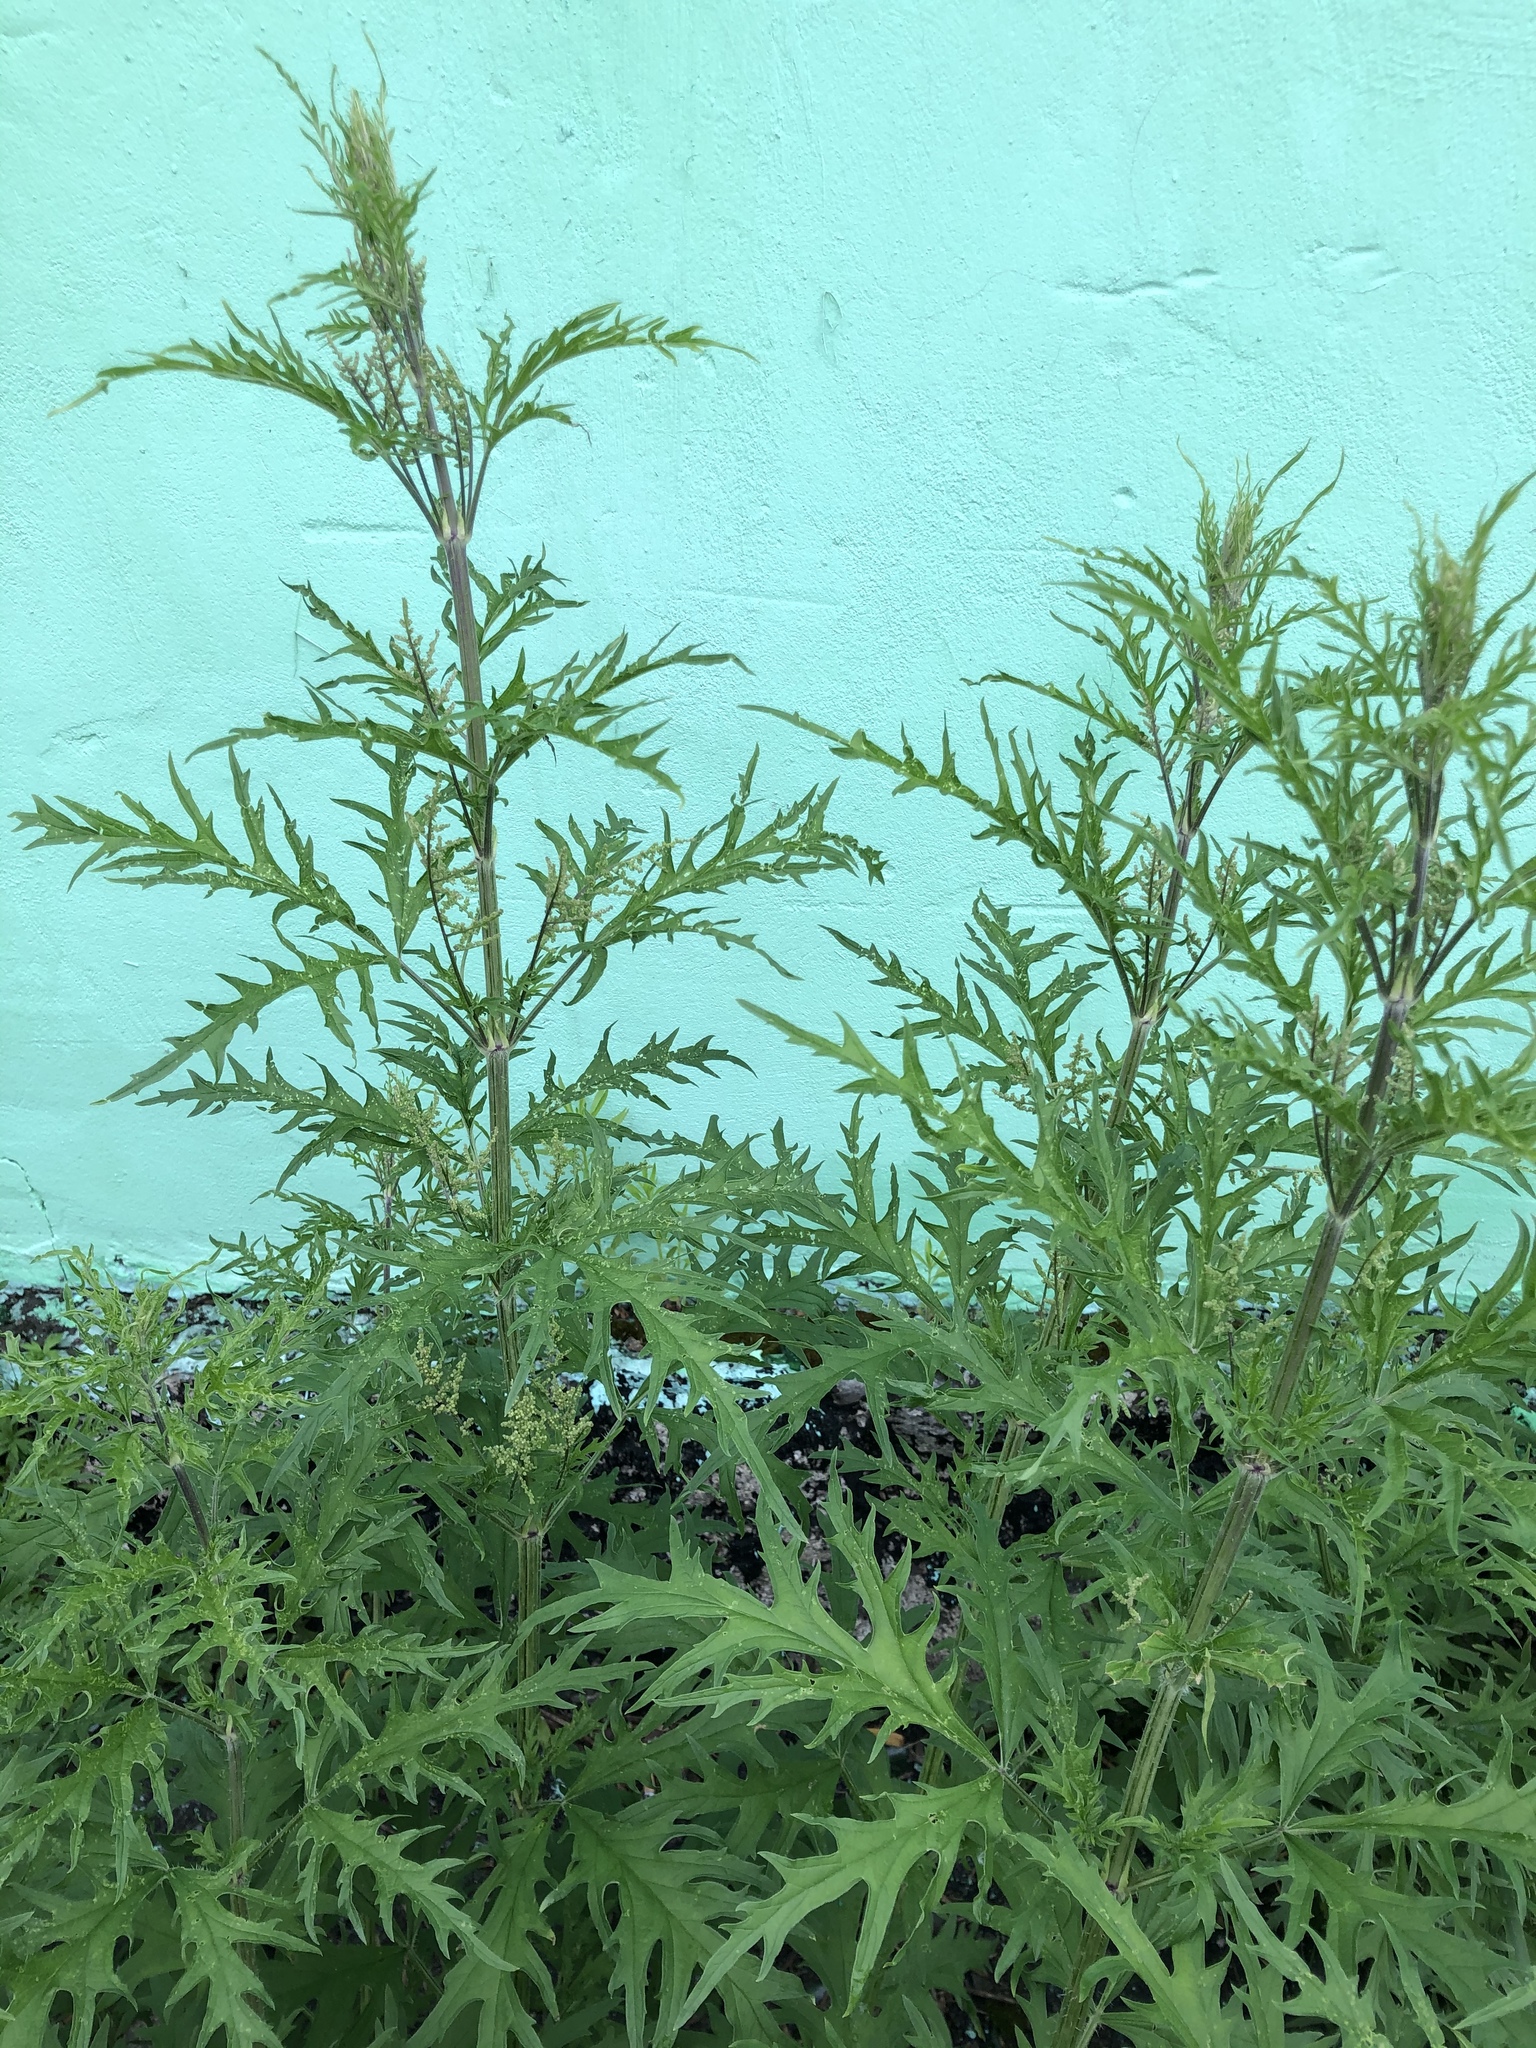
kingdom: Plantae
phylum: Tracheophyta
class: Magnoliopsida
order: Rosales
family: Urticaceae
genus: Urtica
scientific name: Urtica cannabina
